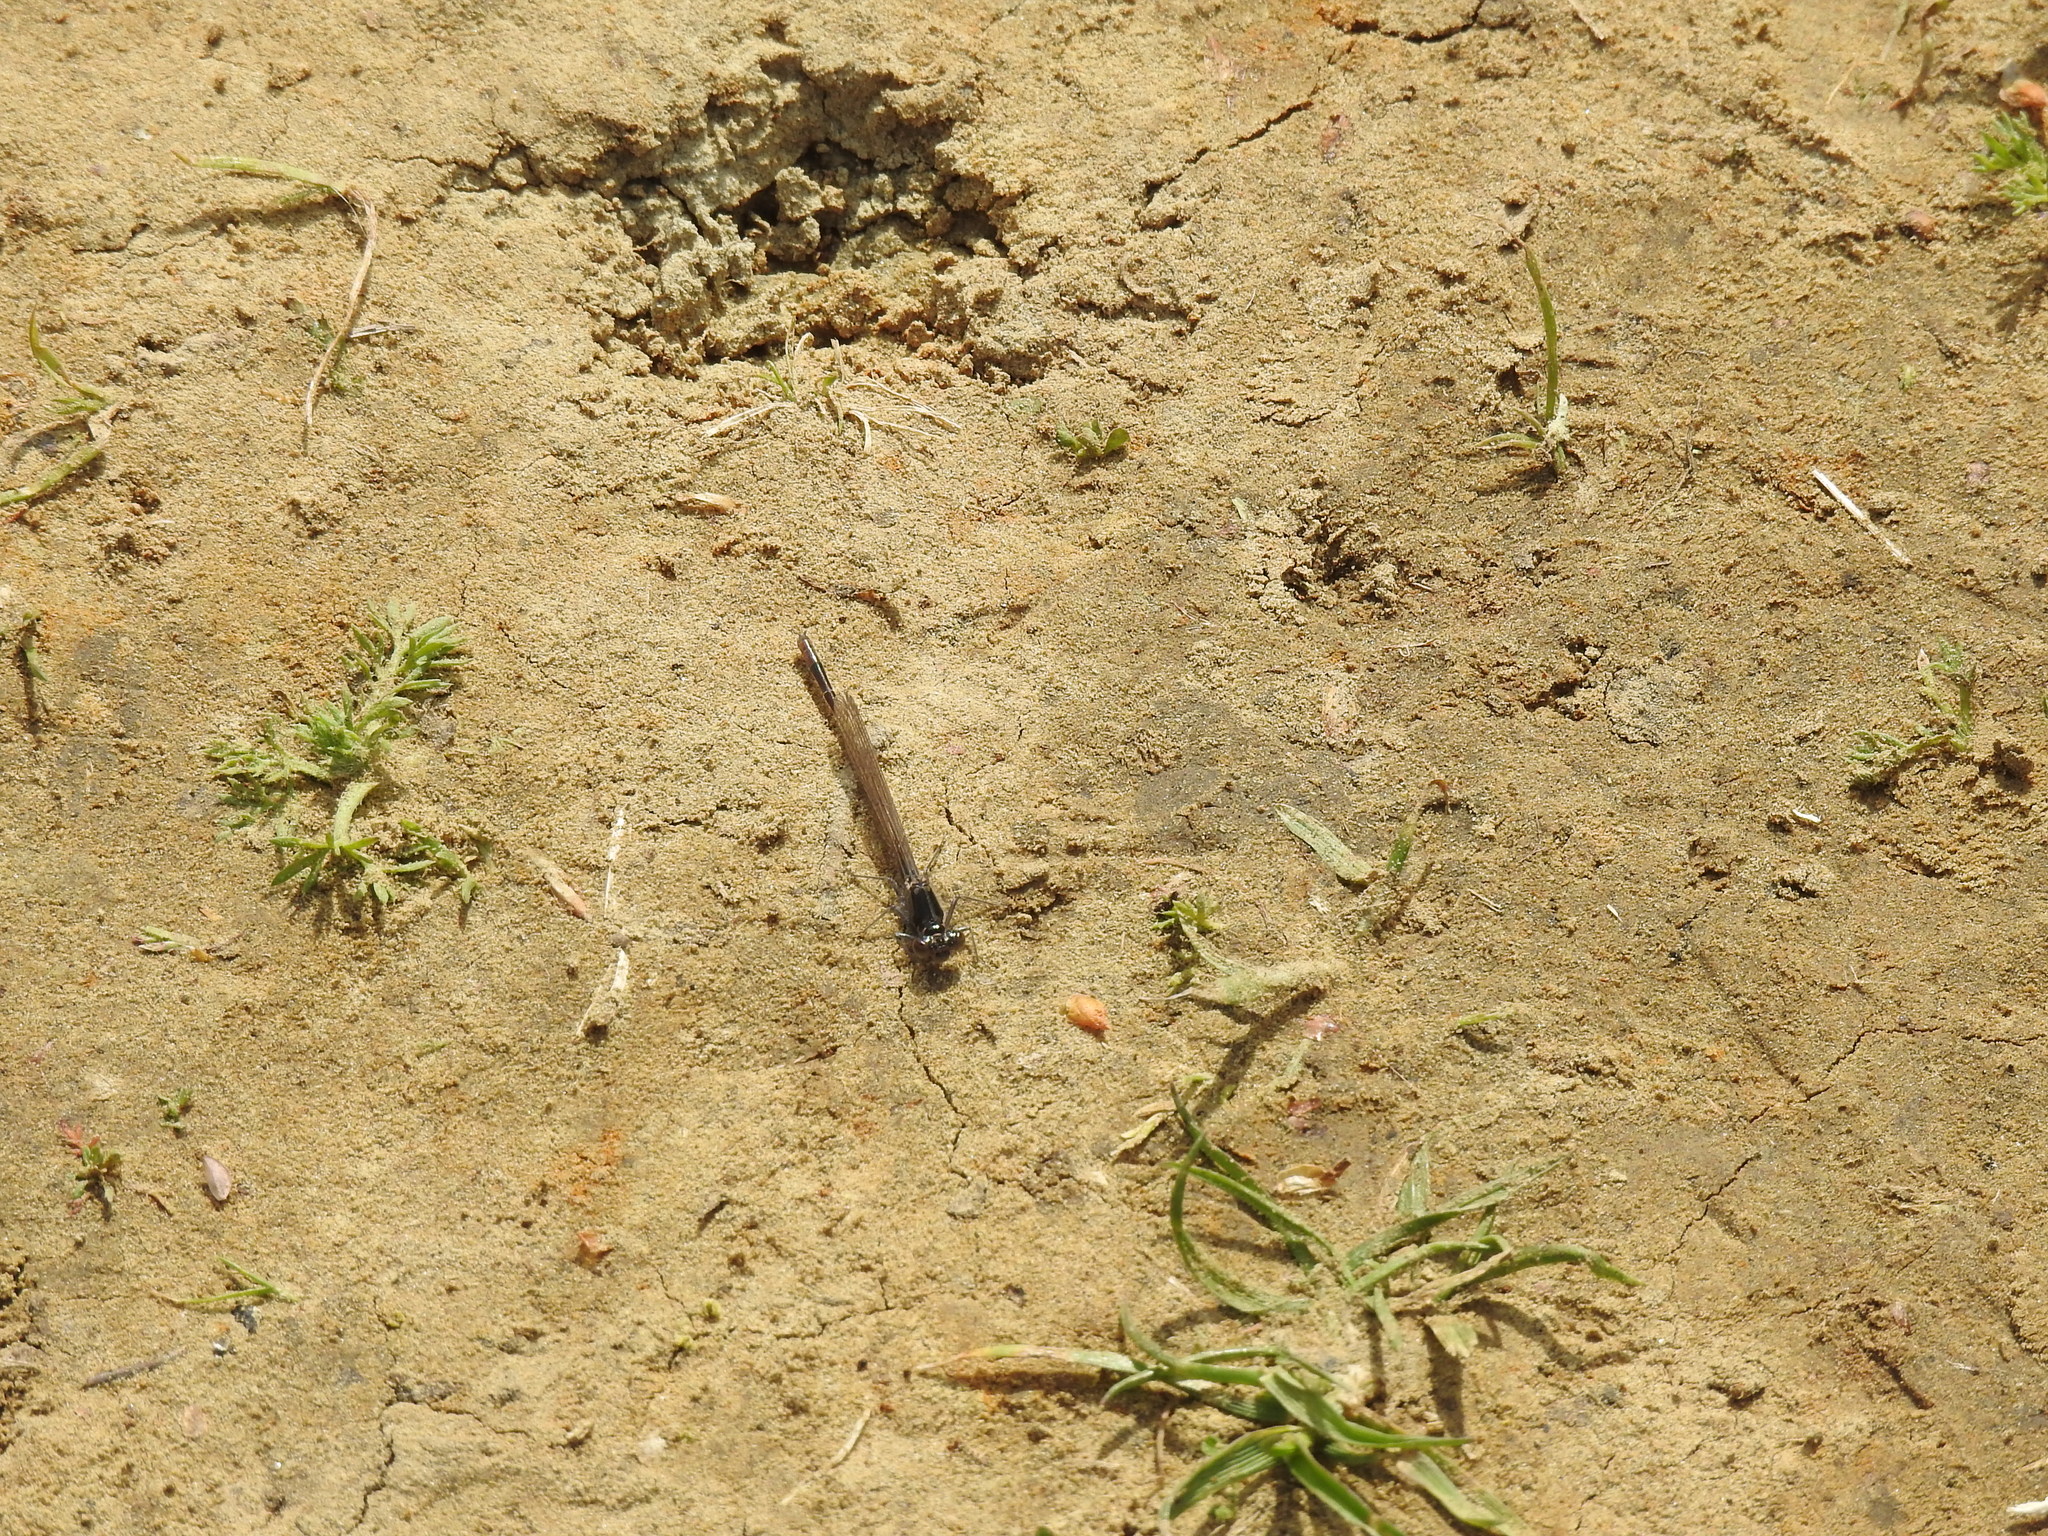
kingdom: Animalia
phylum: Arthropoda
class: Insecta
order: Odonata
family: Coenagrionidae
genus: Ischnura
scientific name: Ischnura cervula
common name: Pacific forktail
